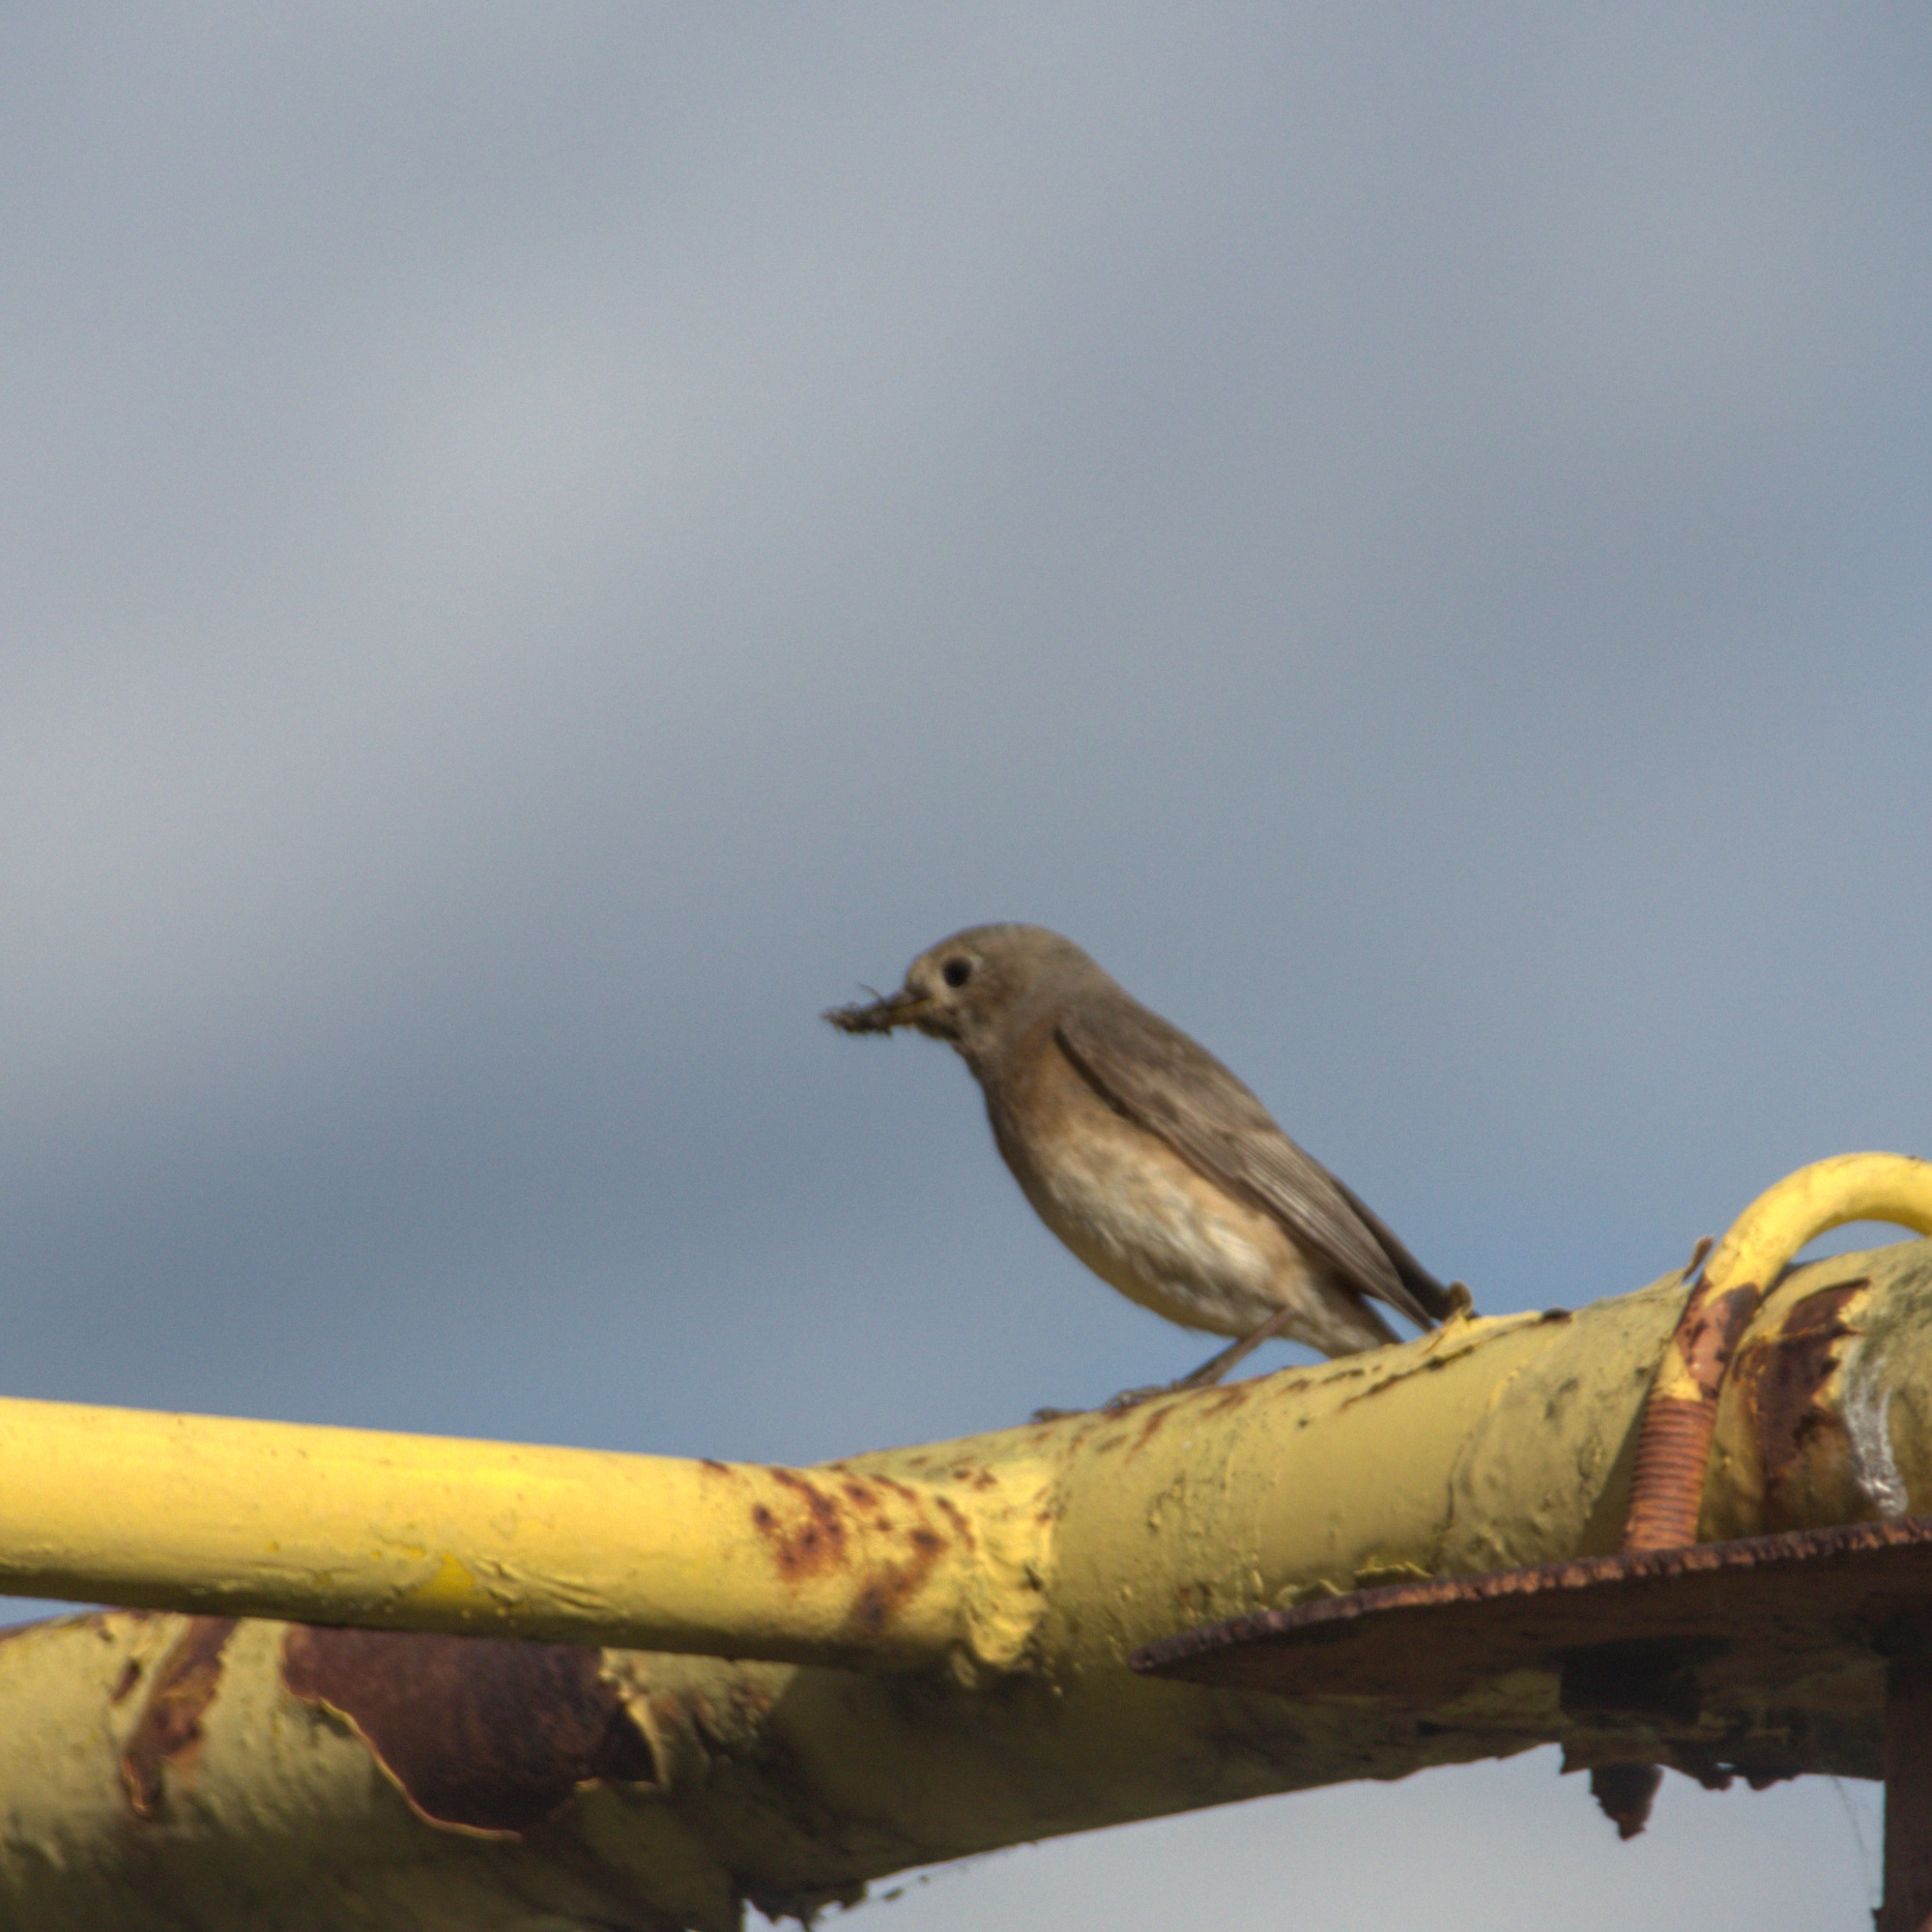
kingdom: Animalia
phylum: Chordata
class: Aves
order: Passeriformes
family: Muscicapidae
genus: Phoenicurus
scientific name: Phoenicurus ochruros
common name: Black redstart
